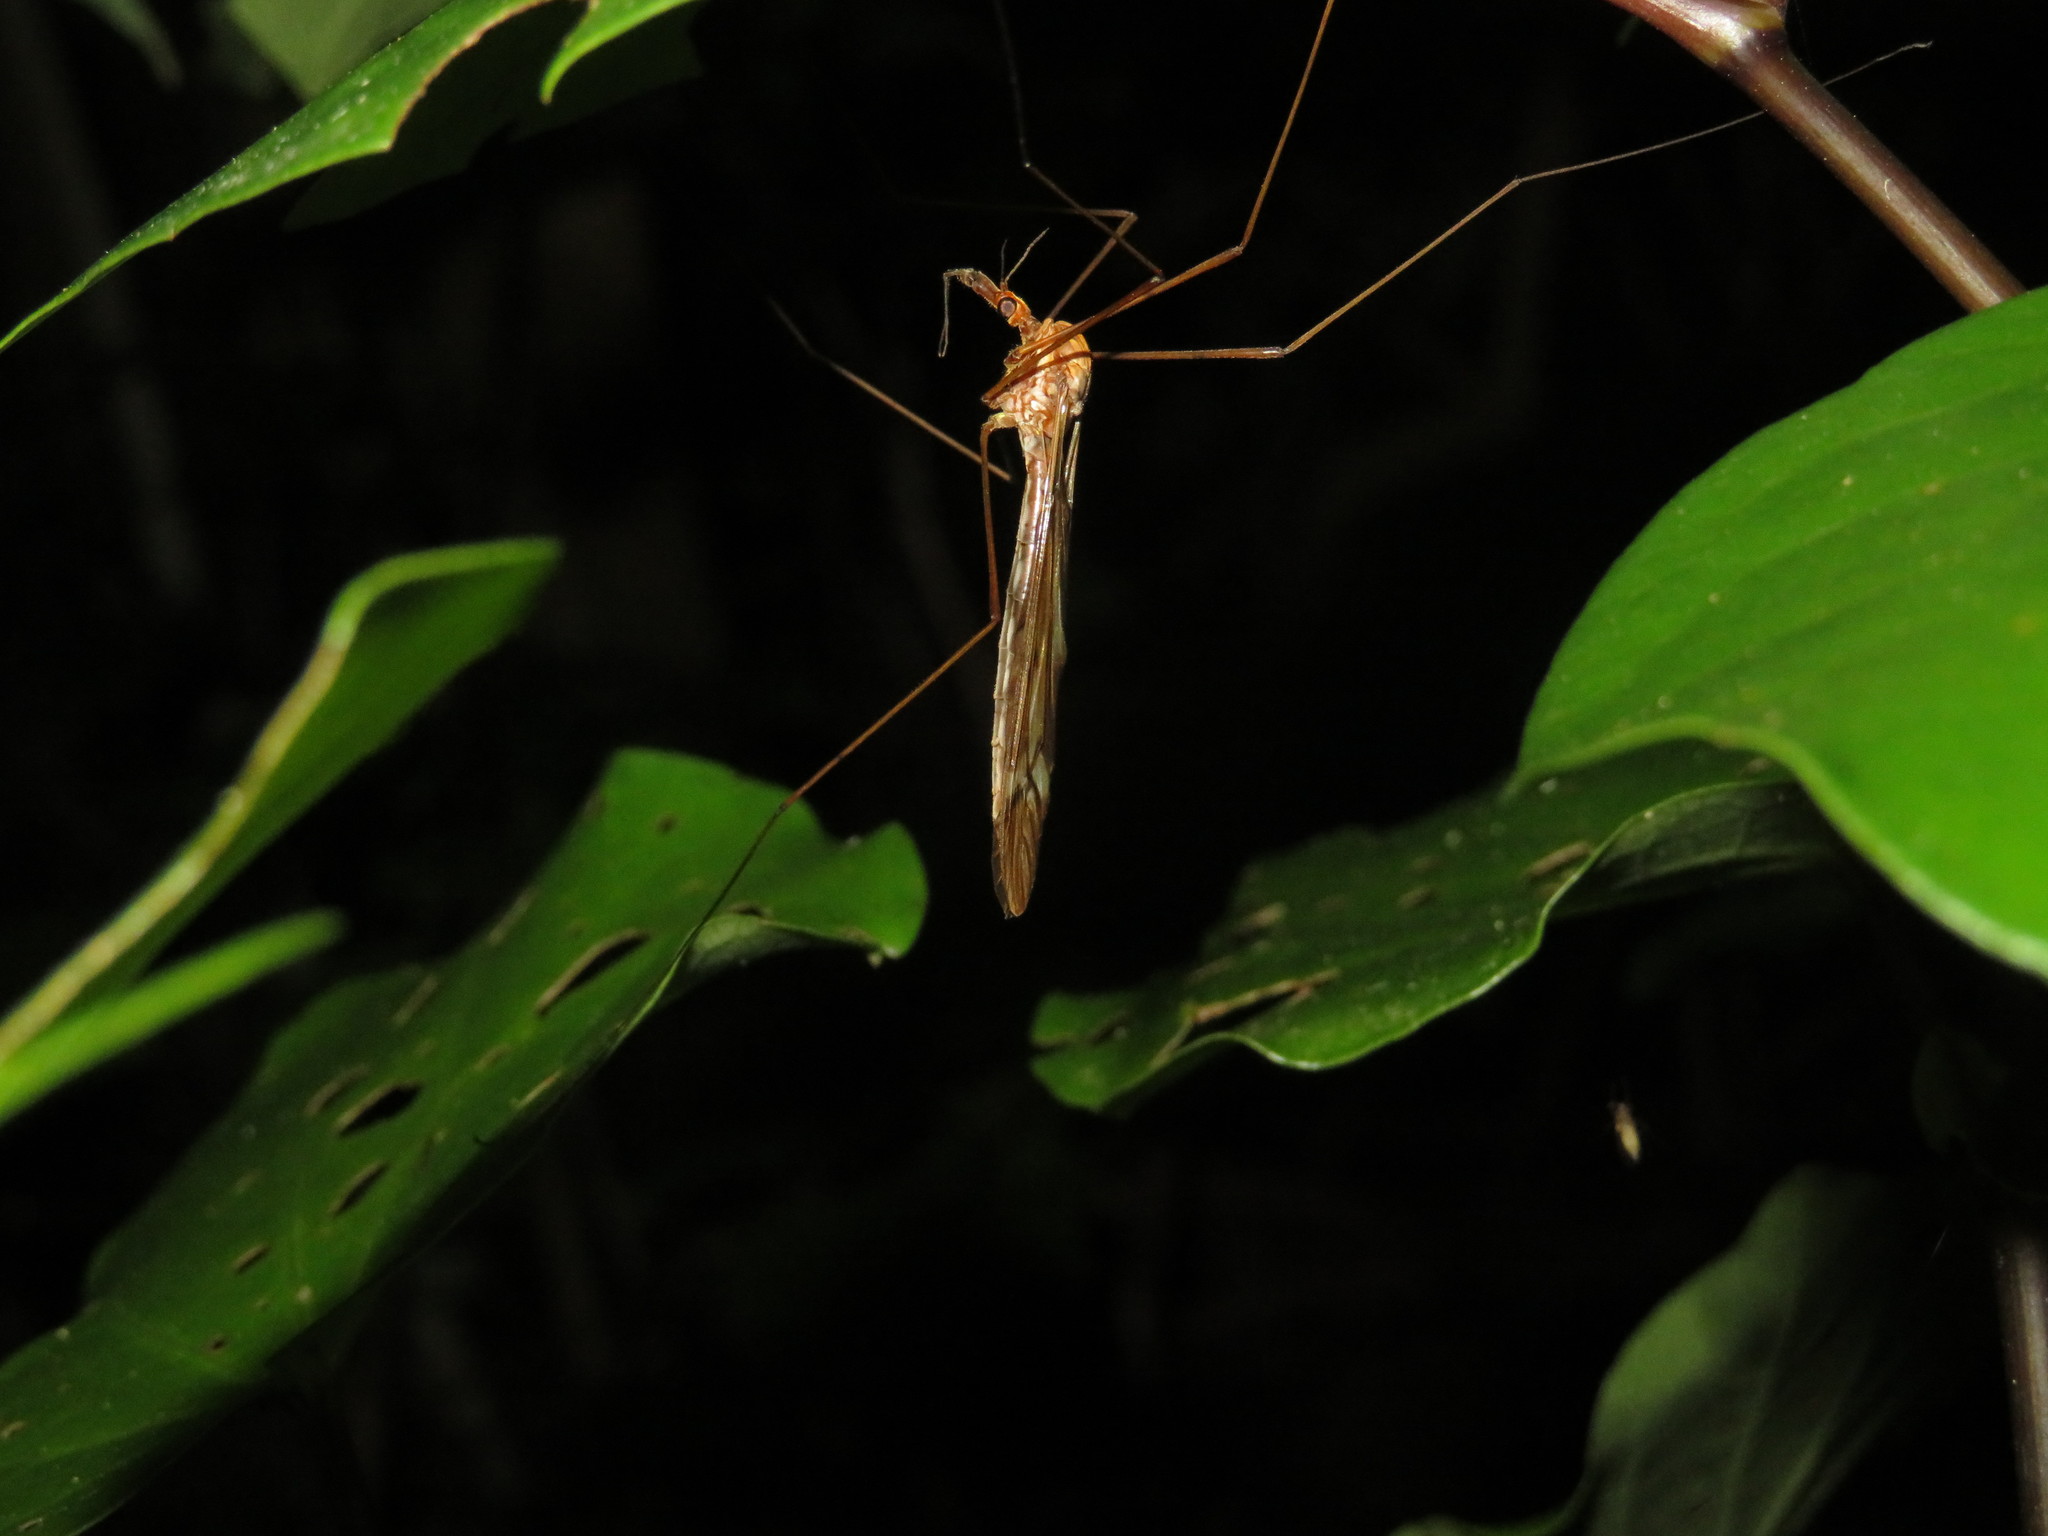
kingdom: Animalia
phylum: Arthropoda
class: Insecta
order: Diptera
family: Tipulidae
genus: Zelandotipula
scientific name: Zelandotipula fulva
